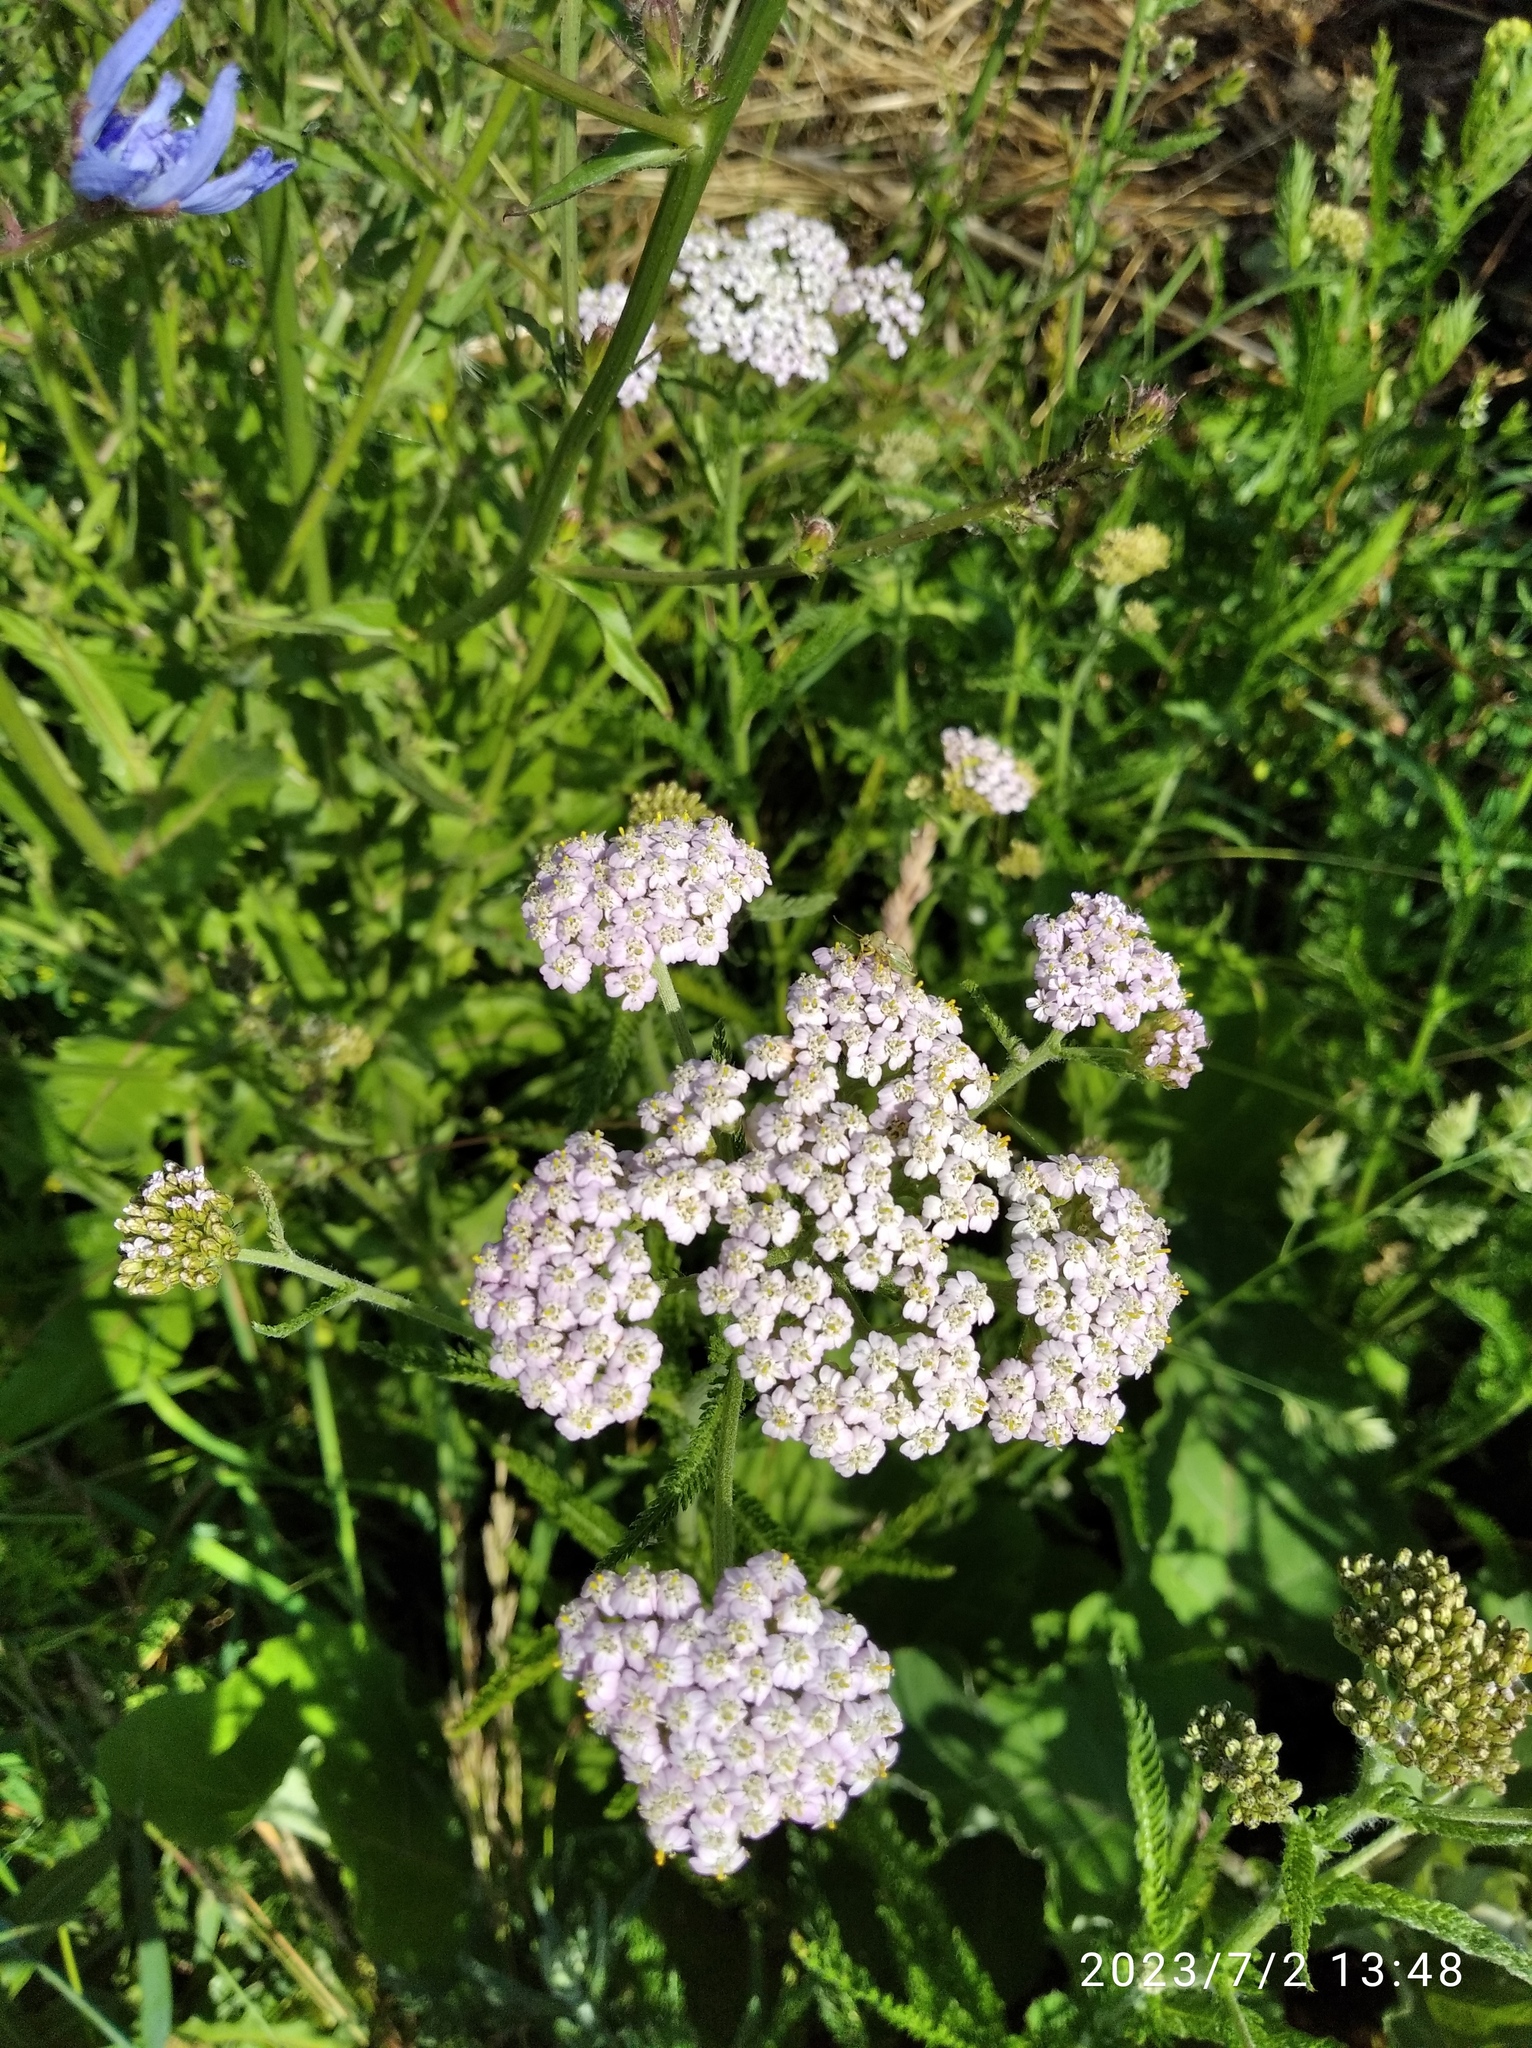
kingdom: Plantae
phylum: Tracheophyta
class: Magnoliopsida
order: Asterales
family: Asteraceae
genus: Achillea
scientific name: Achillea millefolium
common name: Yarrow
